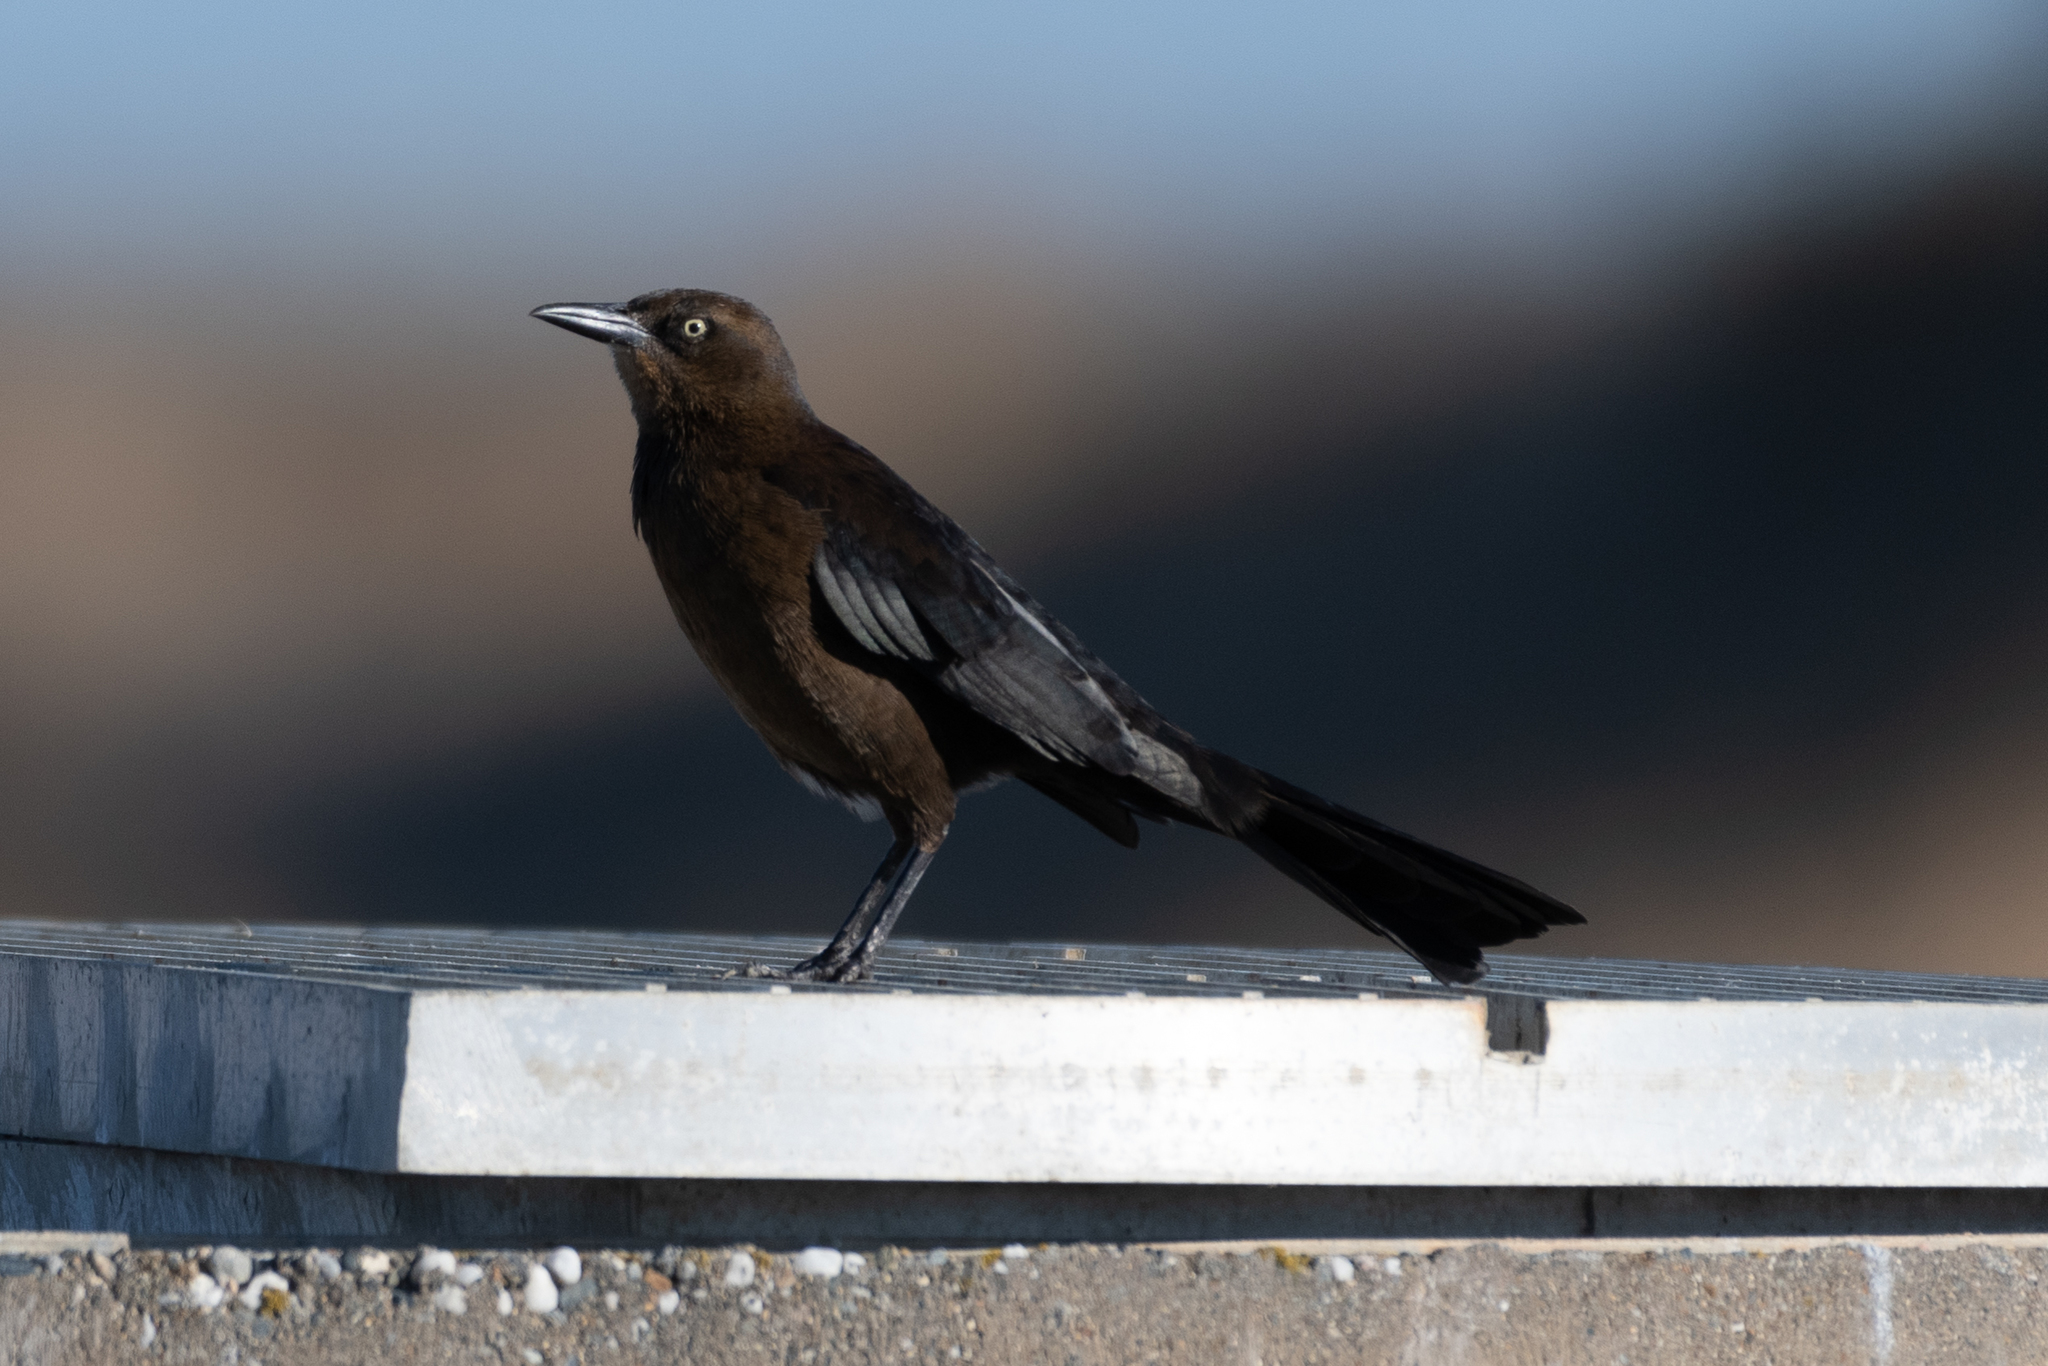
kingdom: Animalia
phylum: Chordata
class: Aves
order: Passeriformes
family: Icteridae
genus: Quiscalus
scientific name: Quiscalus mexicanus
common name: Great-tailed grackle
